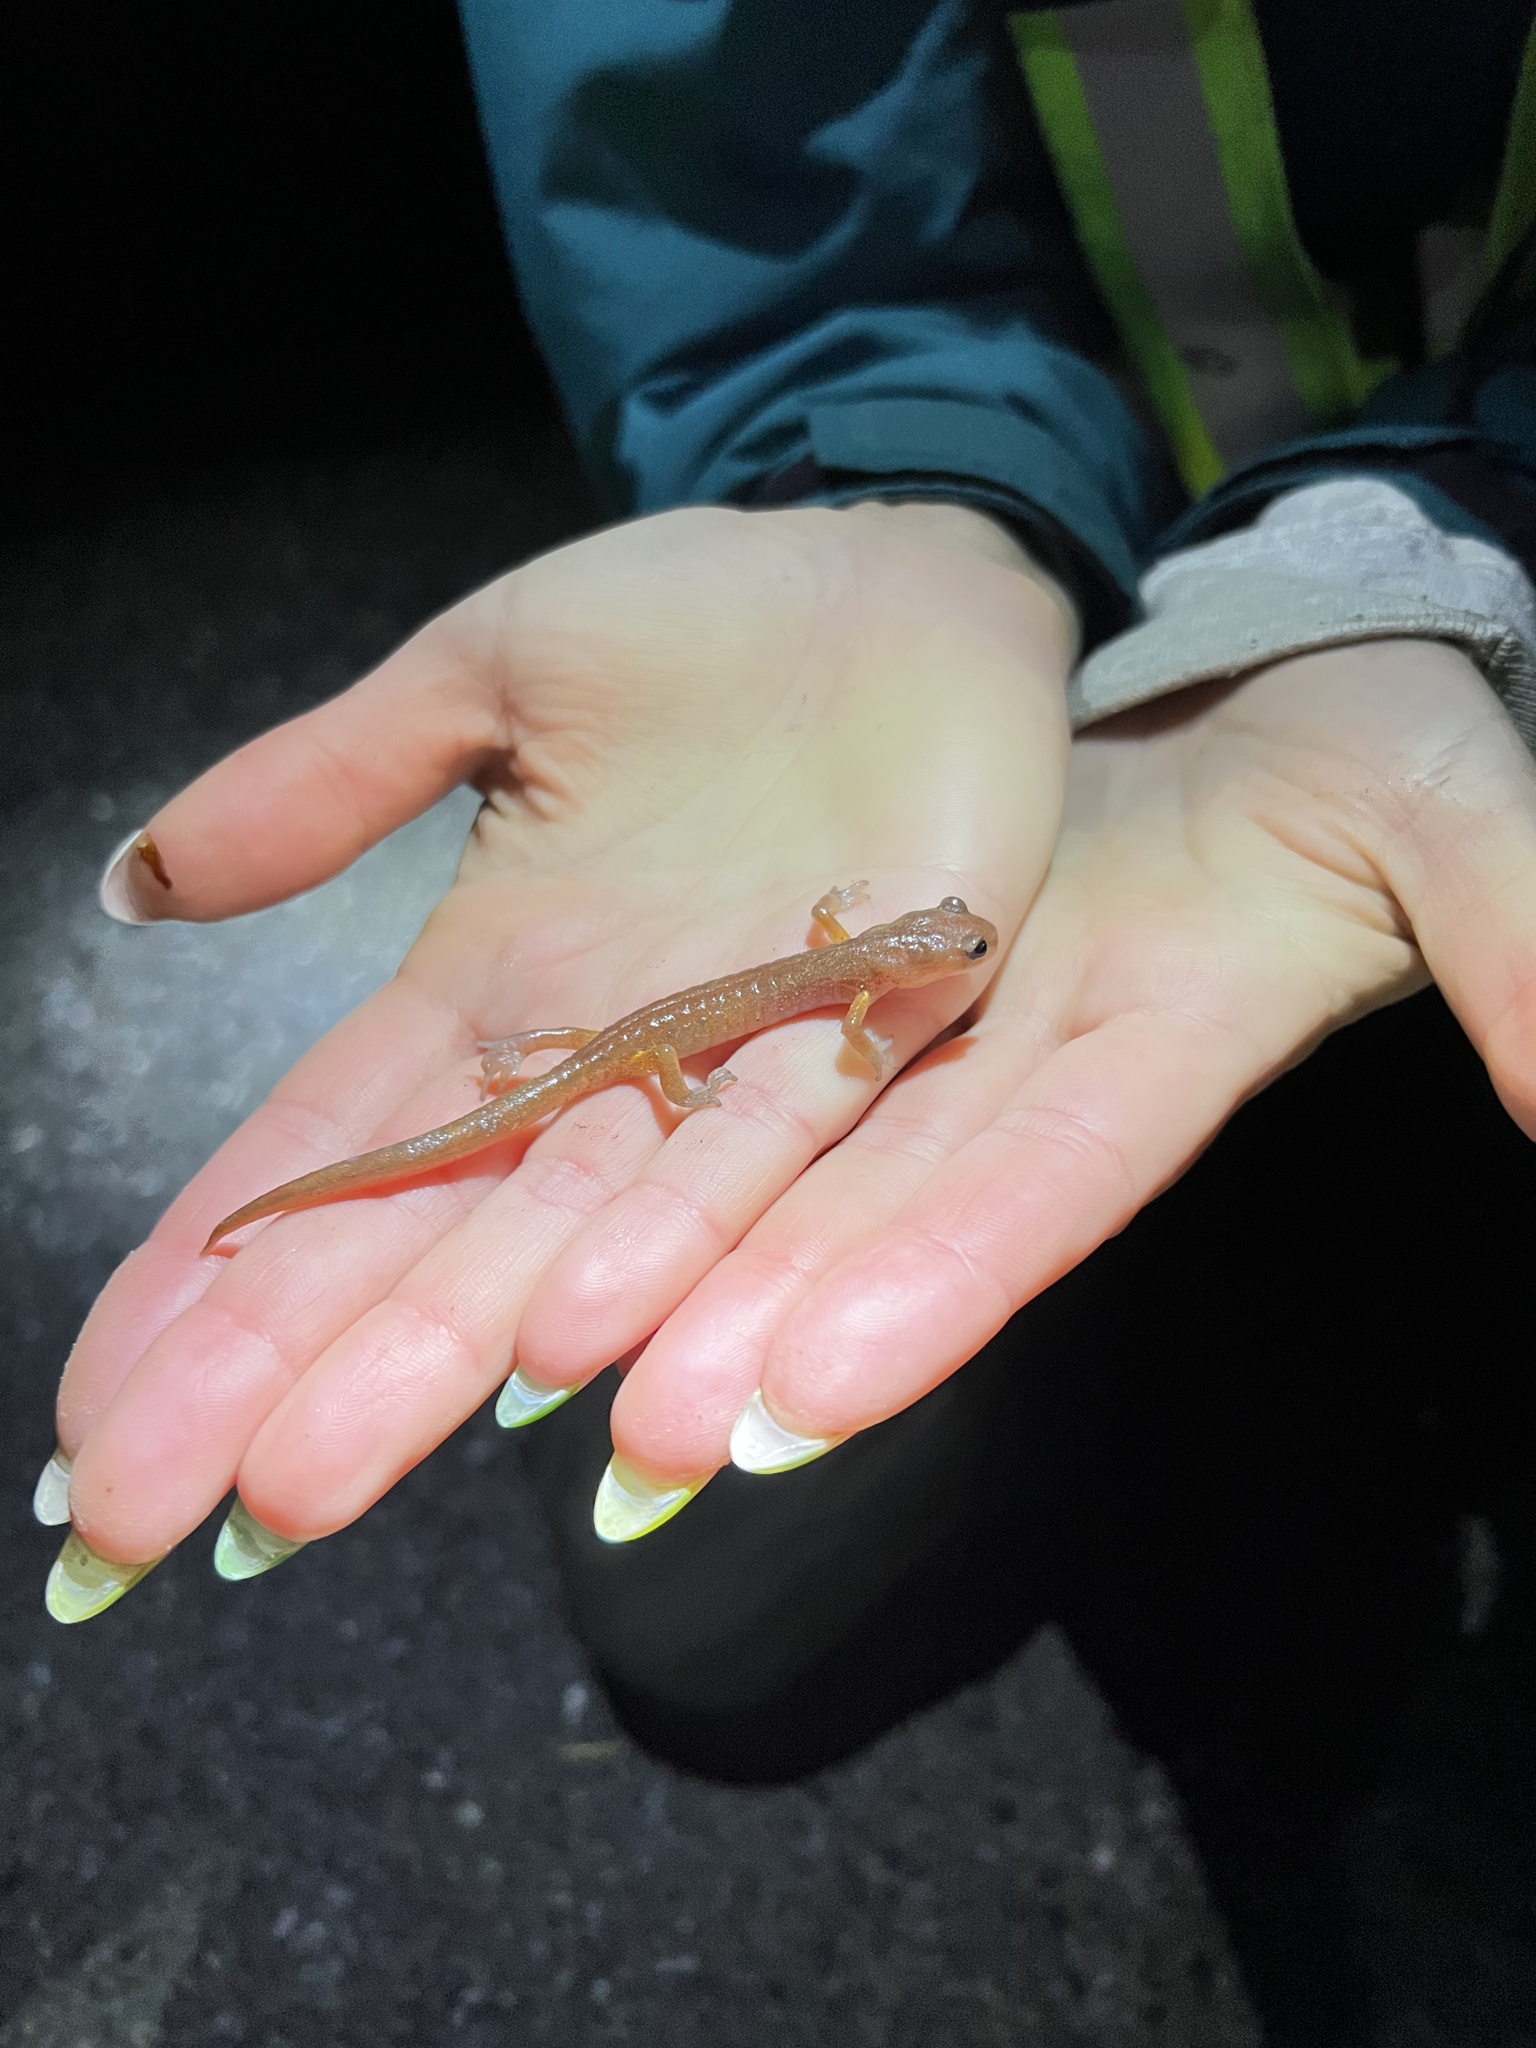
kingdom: Animalia
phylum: Chordata
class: Amphibia
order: Caudata
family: Plethodontidae
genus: Ensatina
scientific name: Ensatina eschscholtzii
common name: Ensatina
